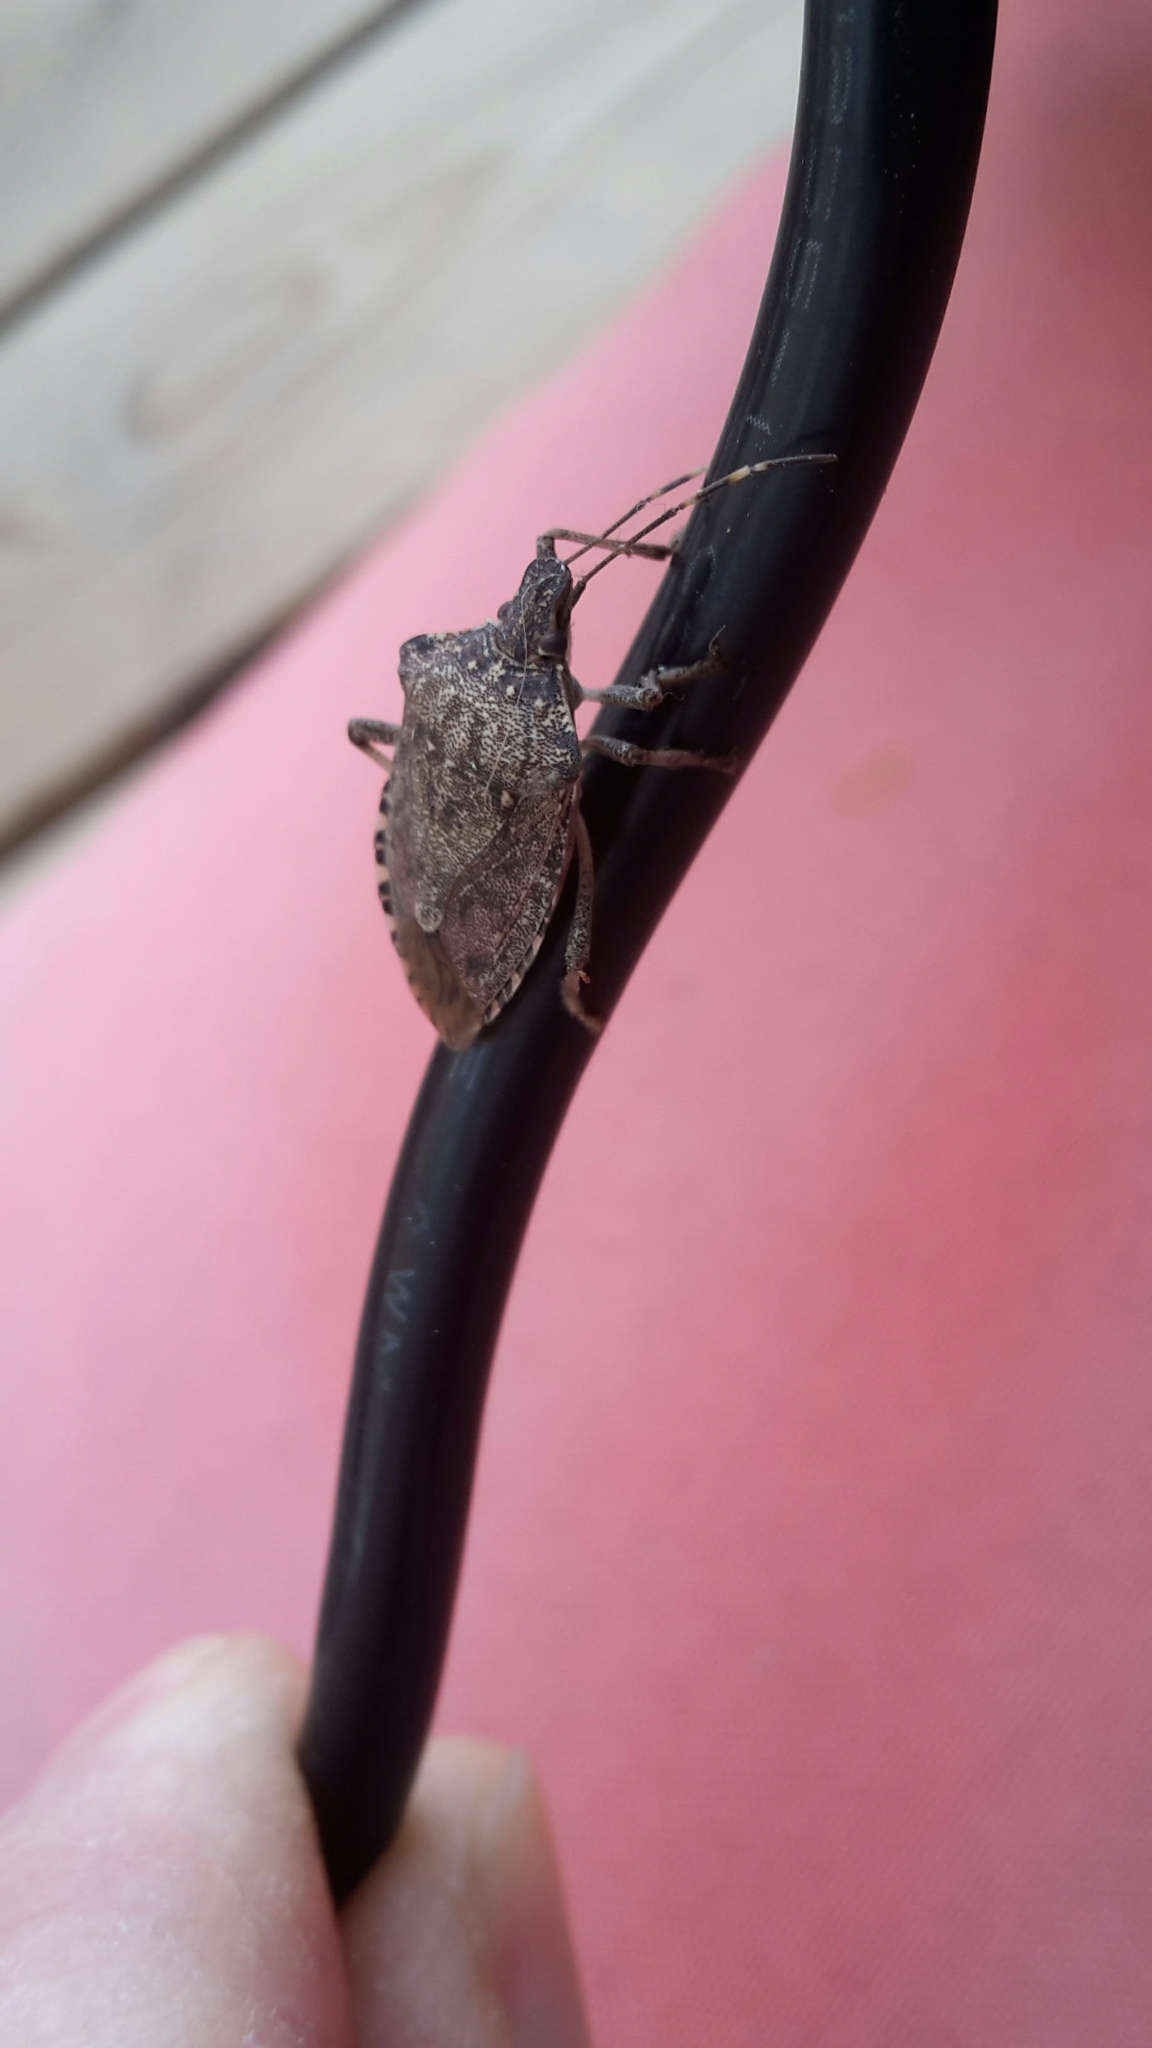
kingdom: Animalia
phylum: Arthropoda
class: Insecta
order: Hemiptera
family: Pentatomidae
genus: Halyomorpha
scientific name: Halyomorpha halys
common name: Brown marmorated stink bug
